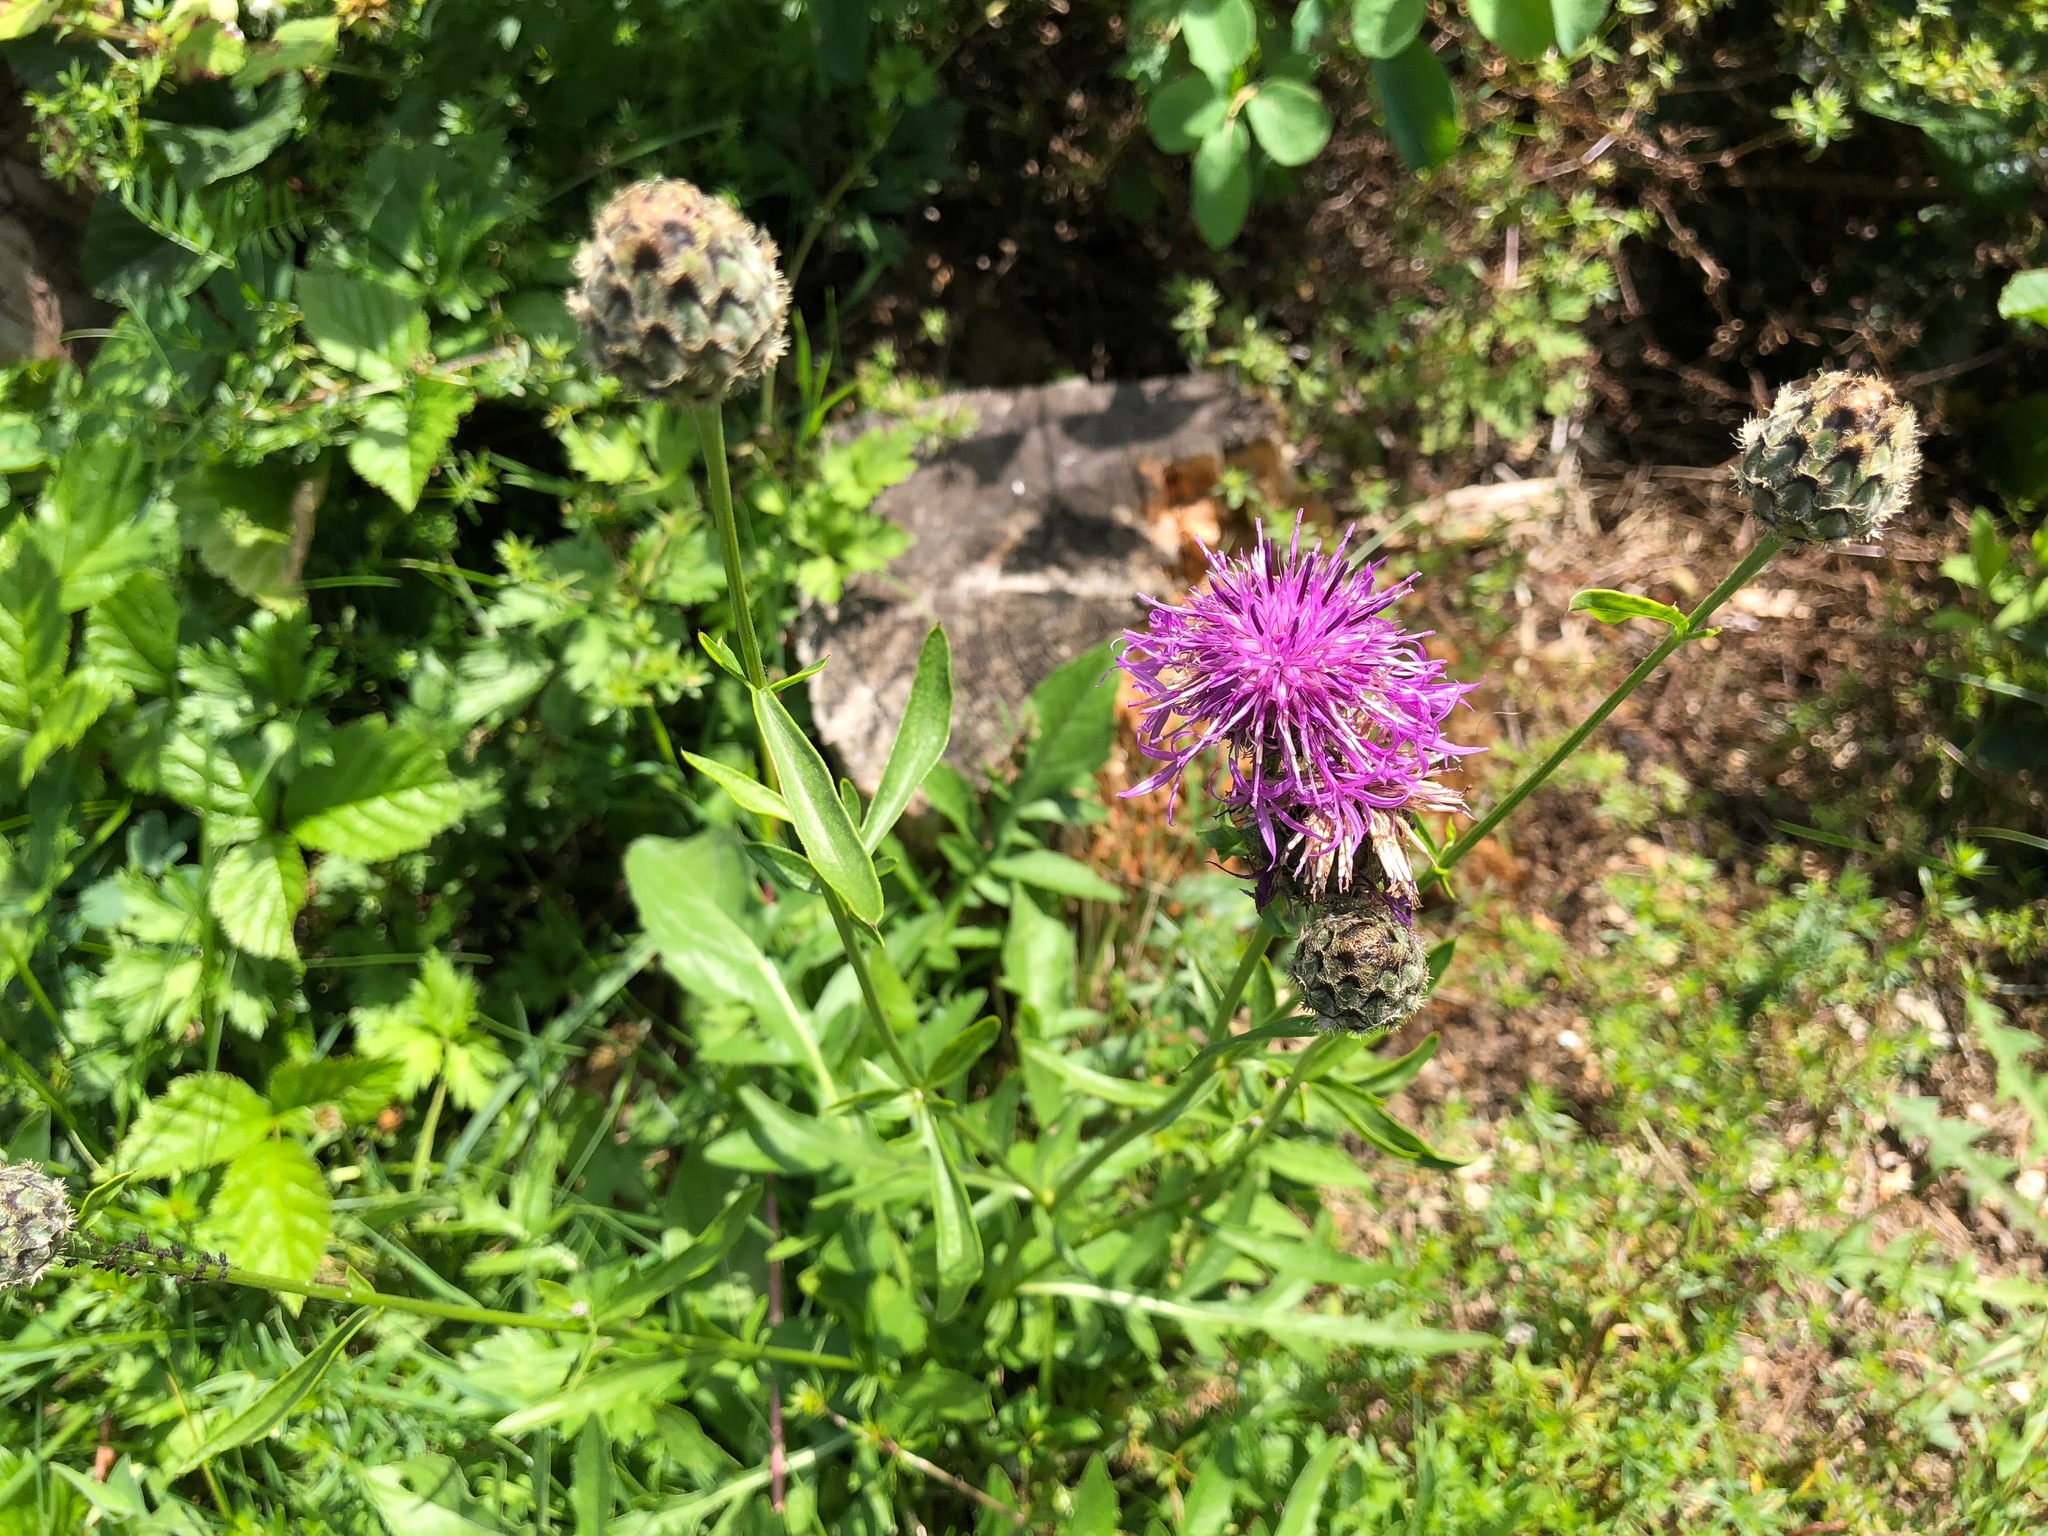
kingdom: Plantae
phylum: Tracheophyta
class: Magnoliopsida
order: Asterales
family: Asteraceae
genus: Centaurea
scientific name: Centaurea scabiosa
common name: Greater knapweed
